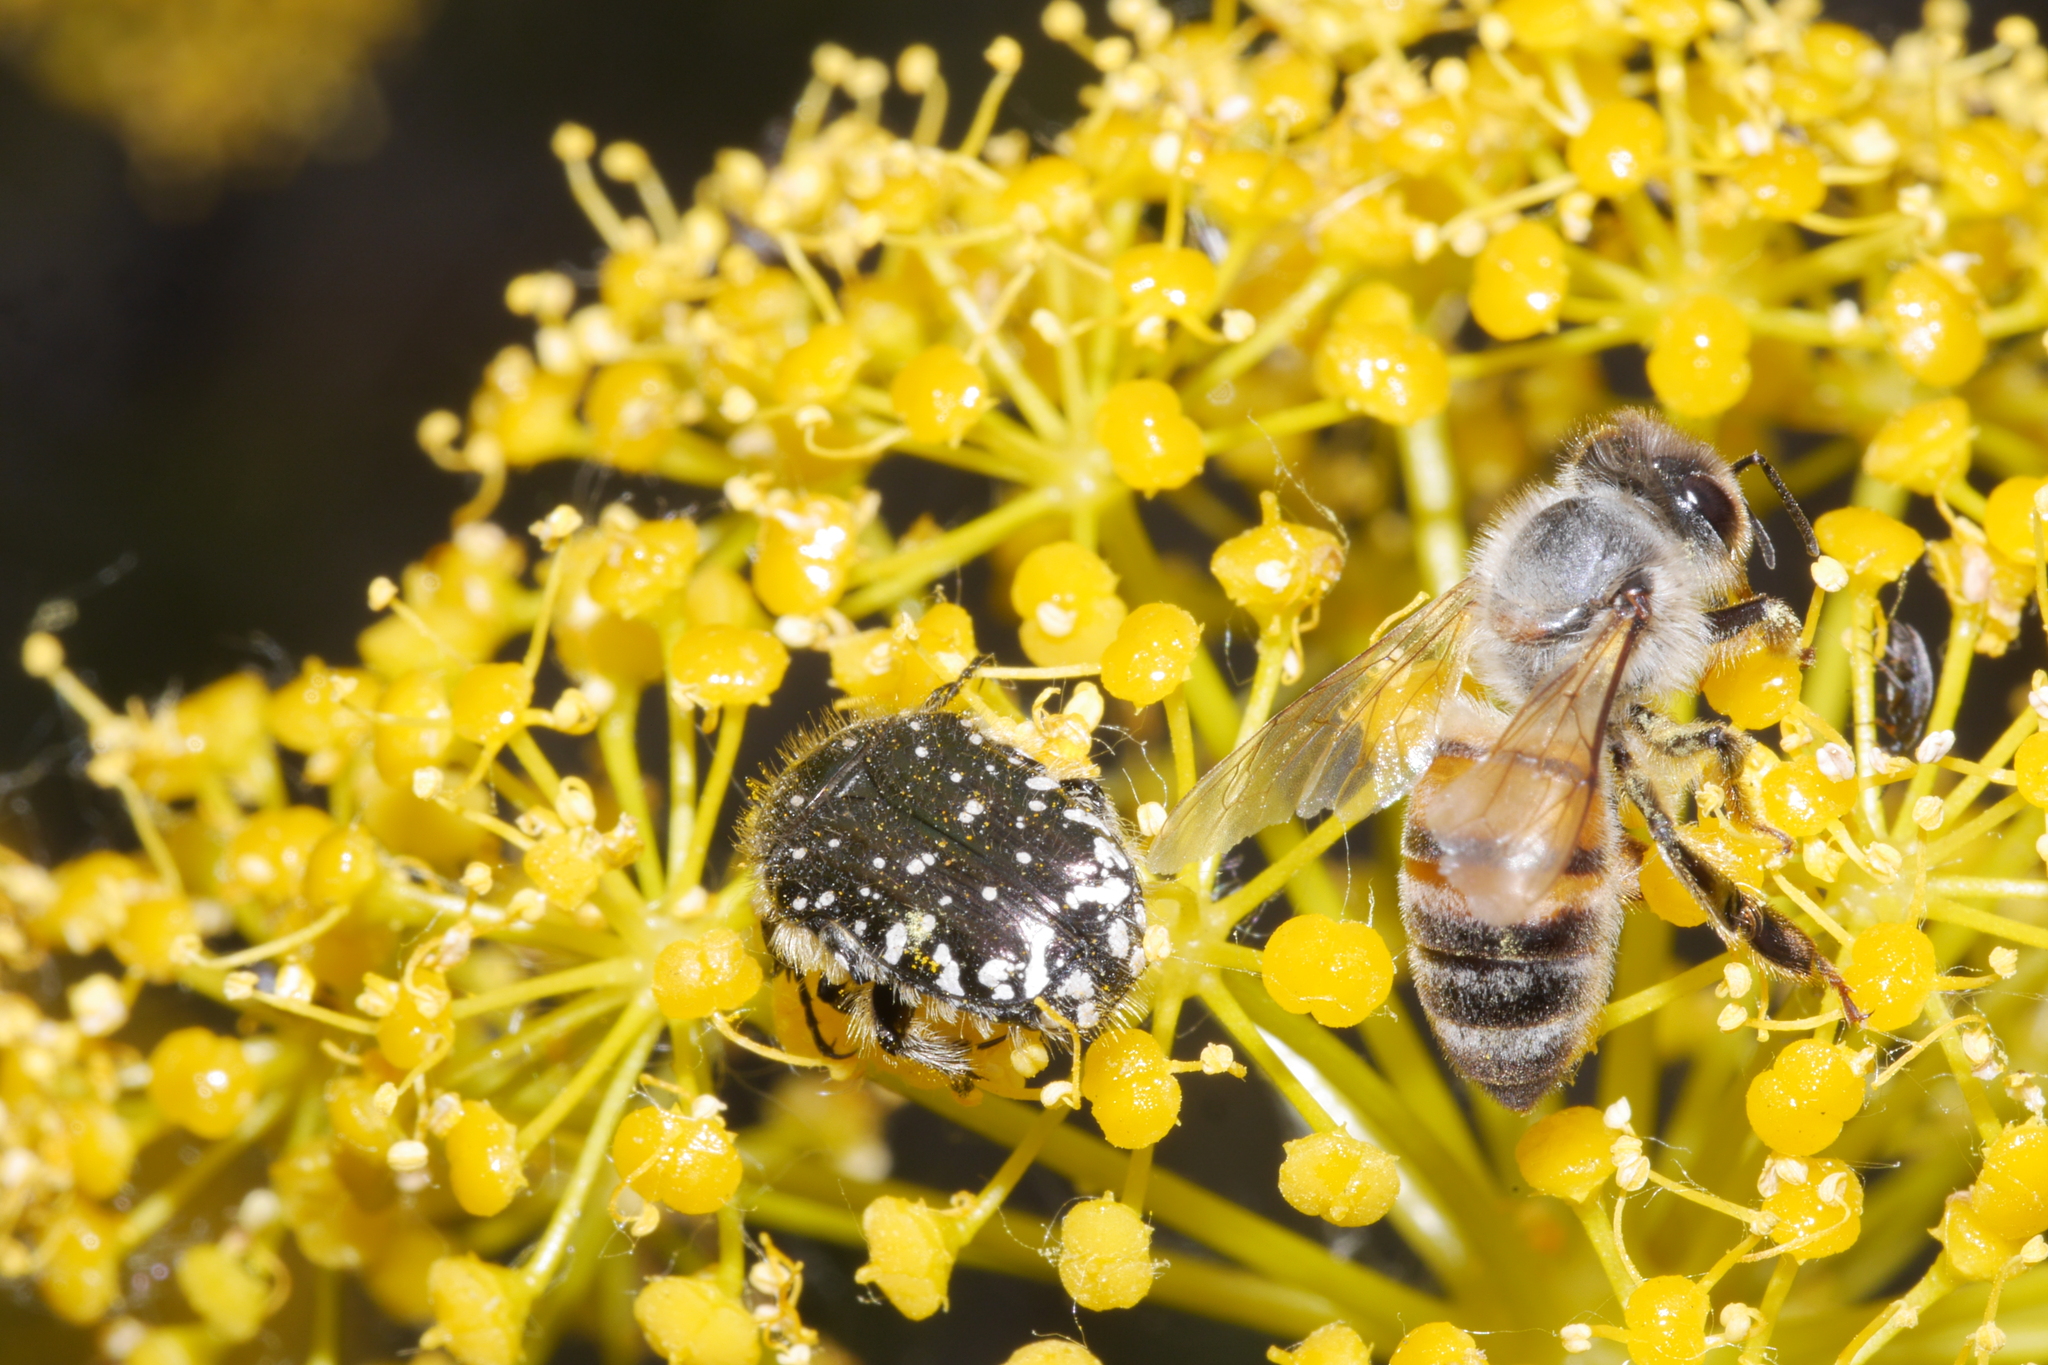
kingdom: Animalia
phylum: Arthropoda
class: Insecta
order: Coleoptera
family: Scarabaeidae
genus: Oxythyrea
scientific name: Oxythyrea funesta
